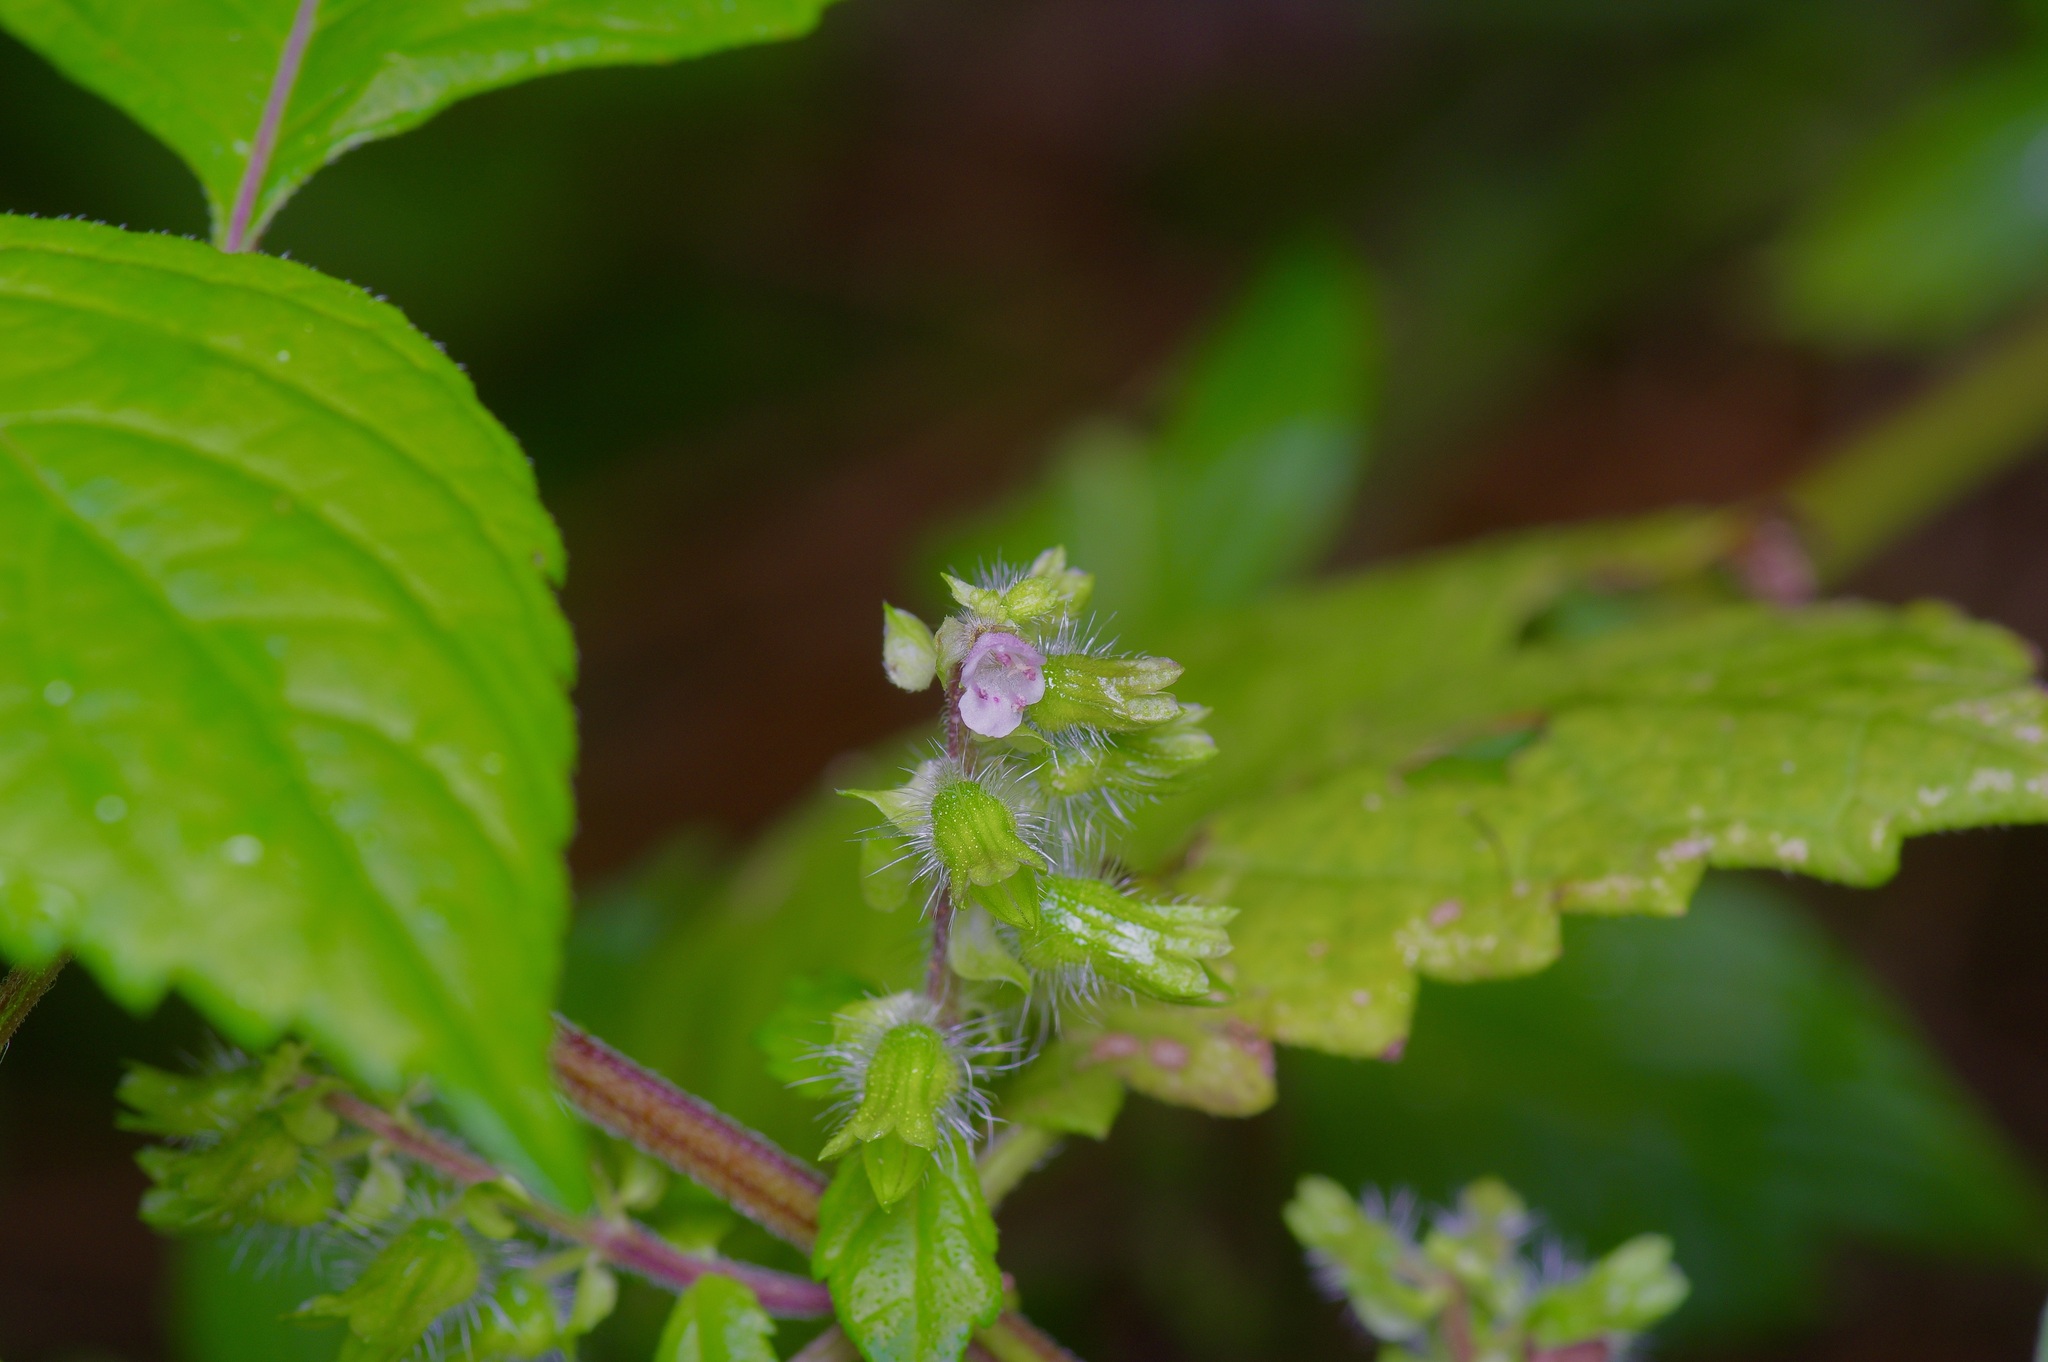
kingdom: Plantae
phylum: Tracheophyta
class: Magnoliopsida
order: Lamiales
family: Lamiaceae
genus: Perilla
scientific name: Perilla frutescens
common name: Perilla
